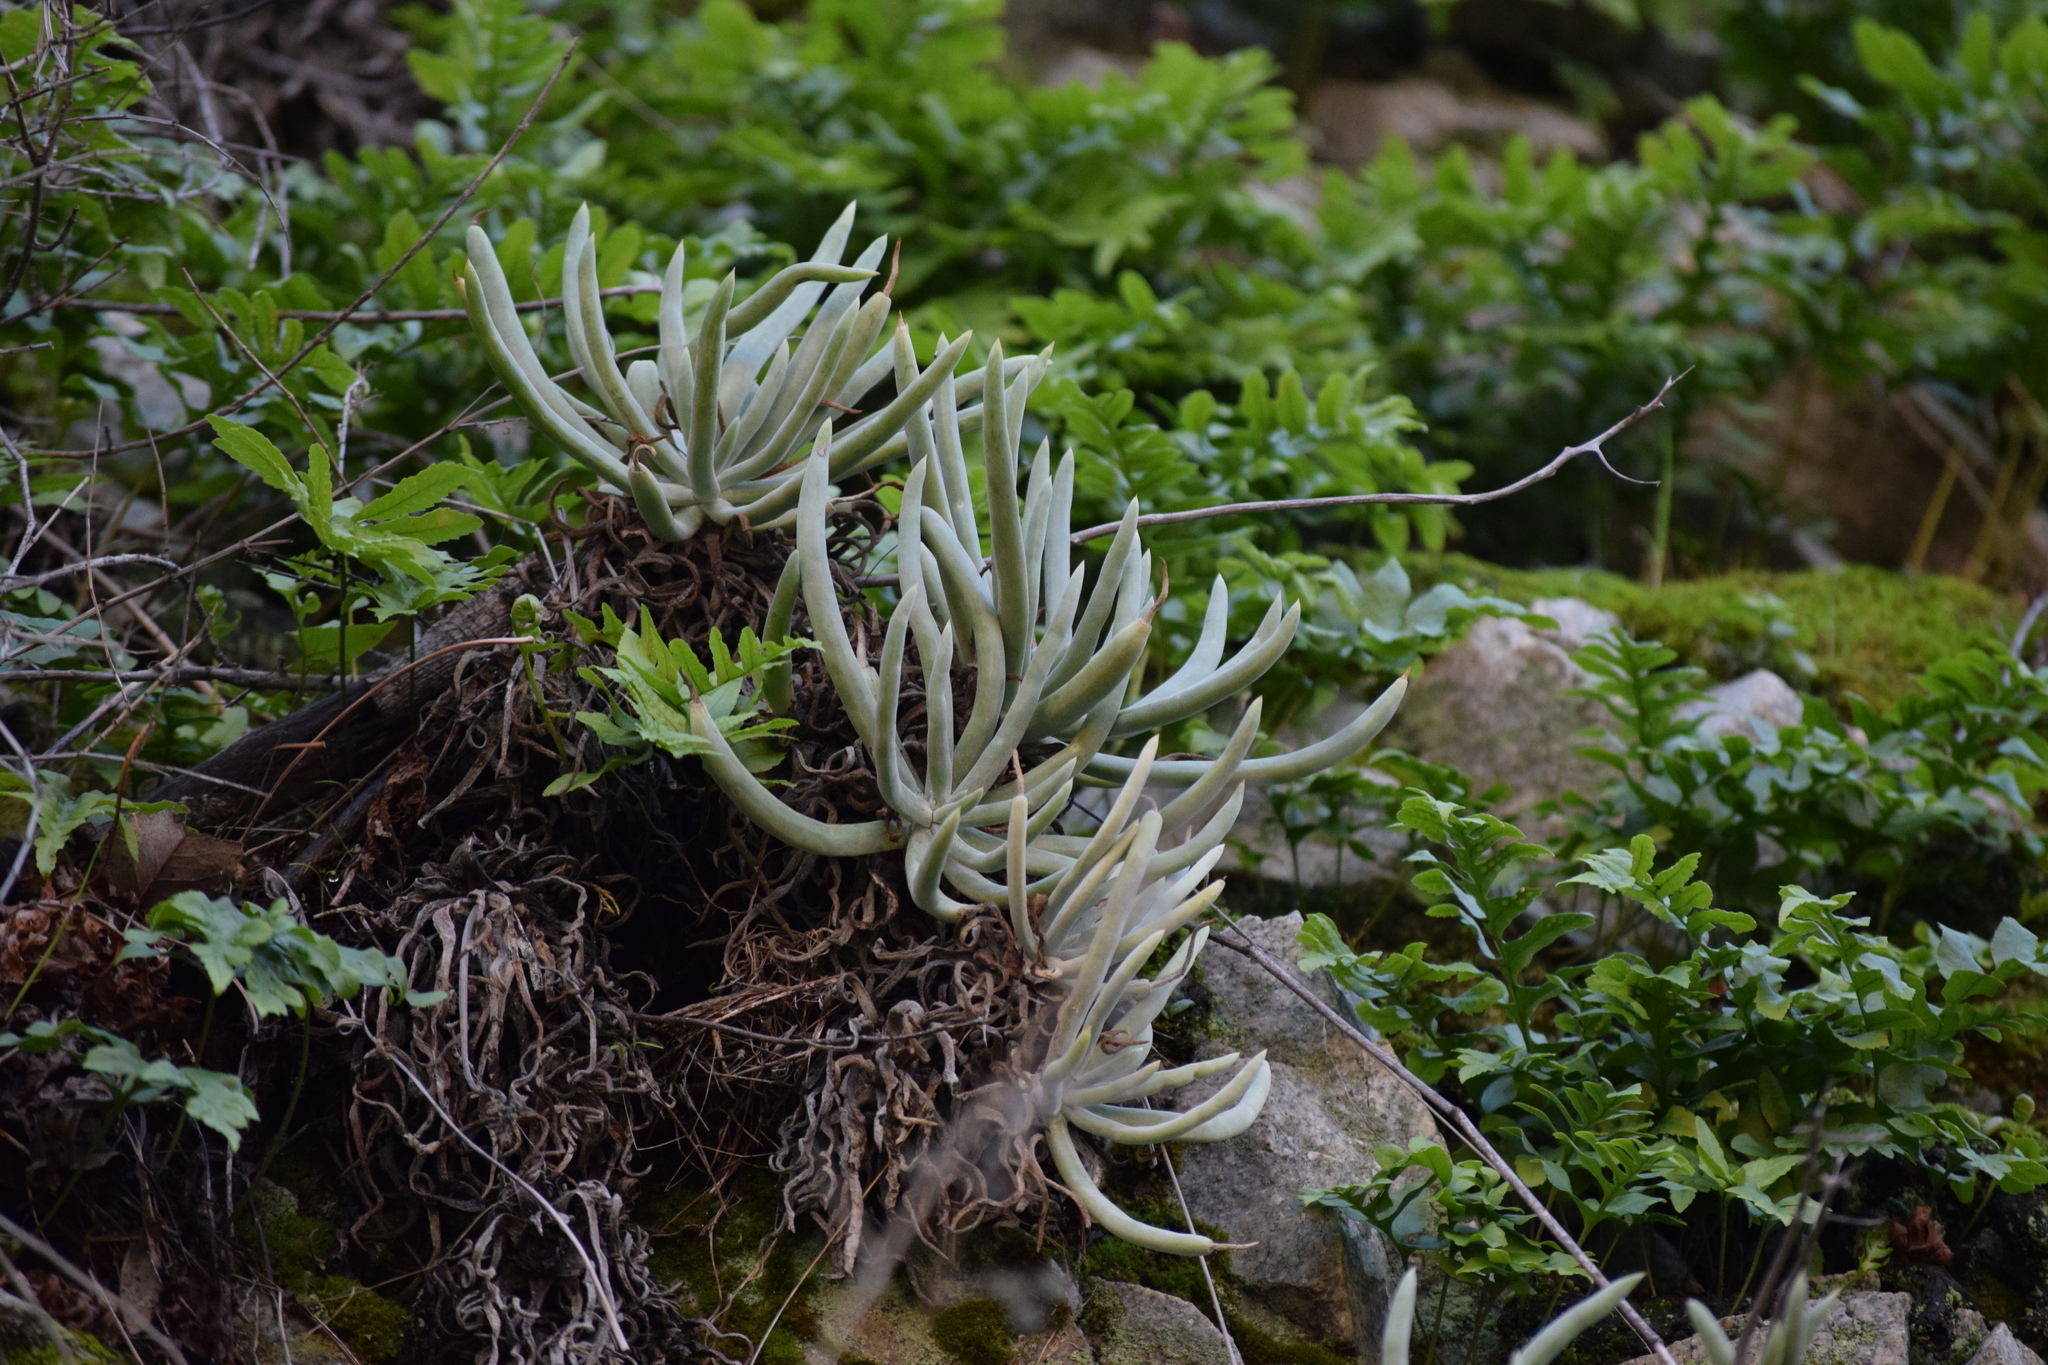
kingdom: Plantae
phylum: Tracheophyta
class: Magnoliopsida
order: Saxifragales
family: Crassulaceae
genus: Dudleya
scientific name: Dudleya densiflora
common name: San gabriel mountains dudleya
